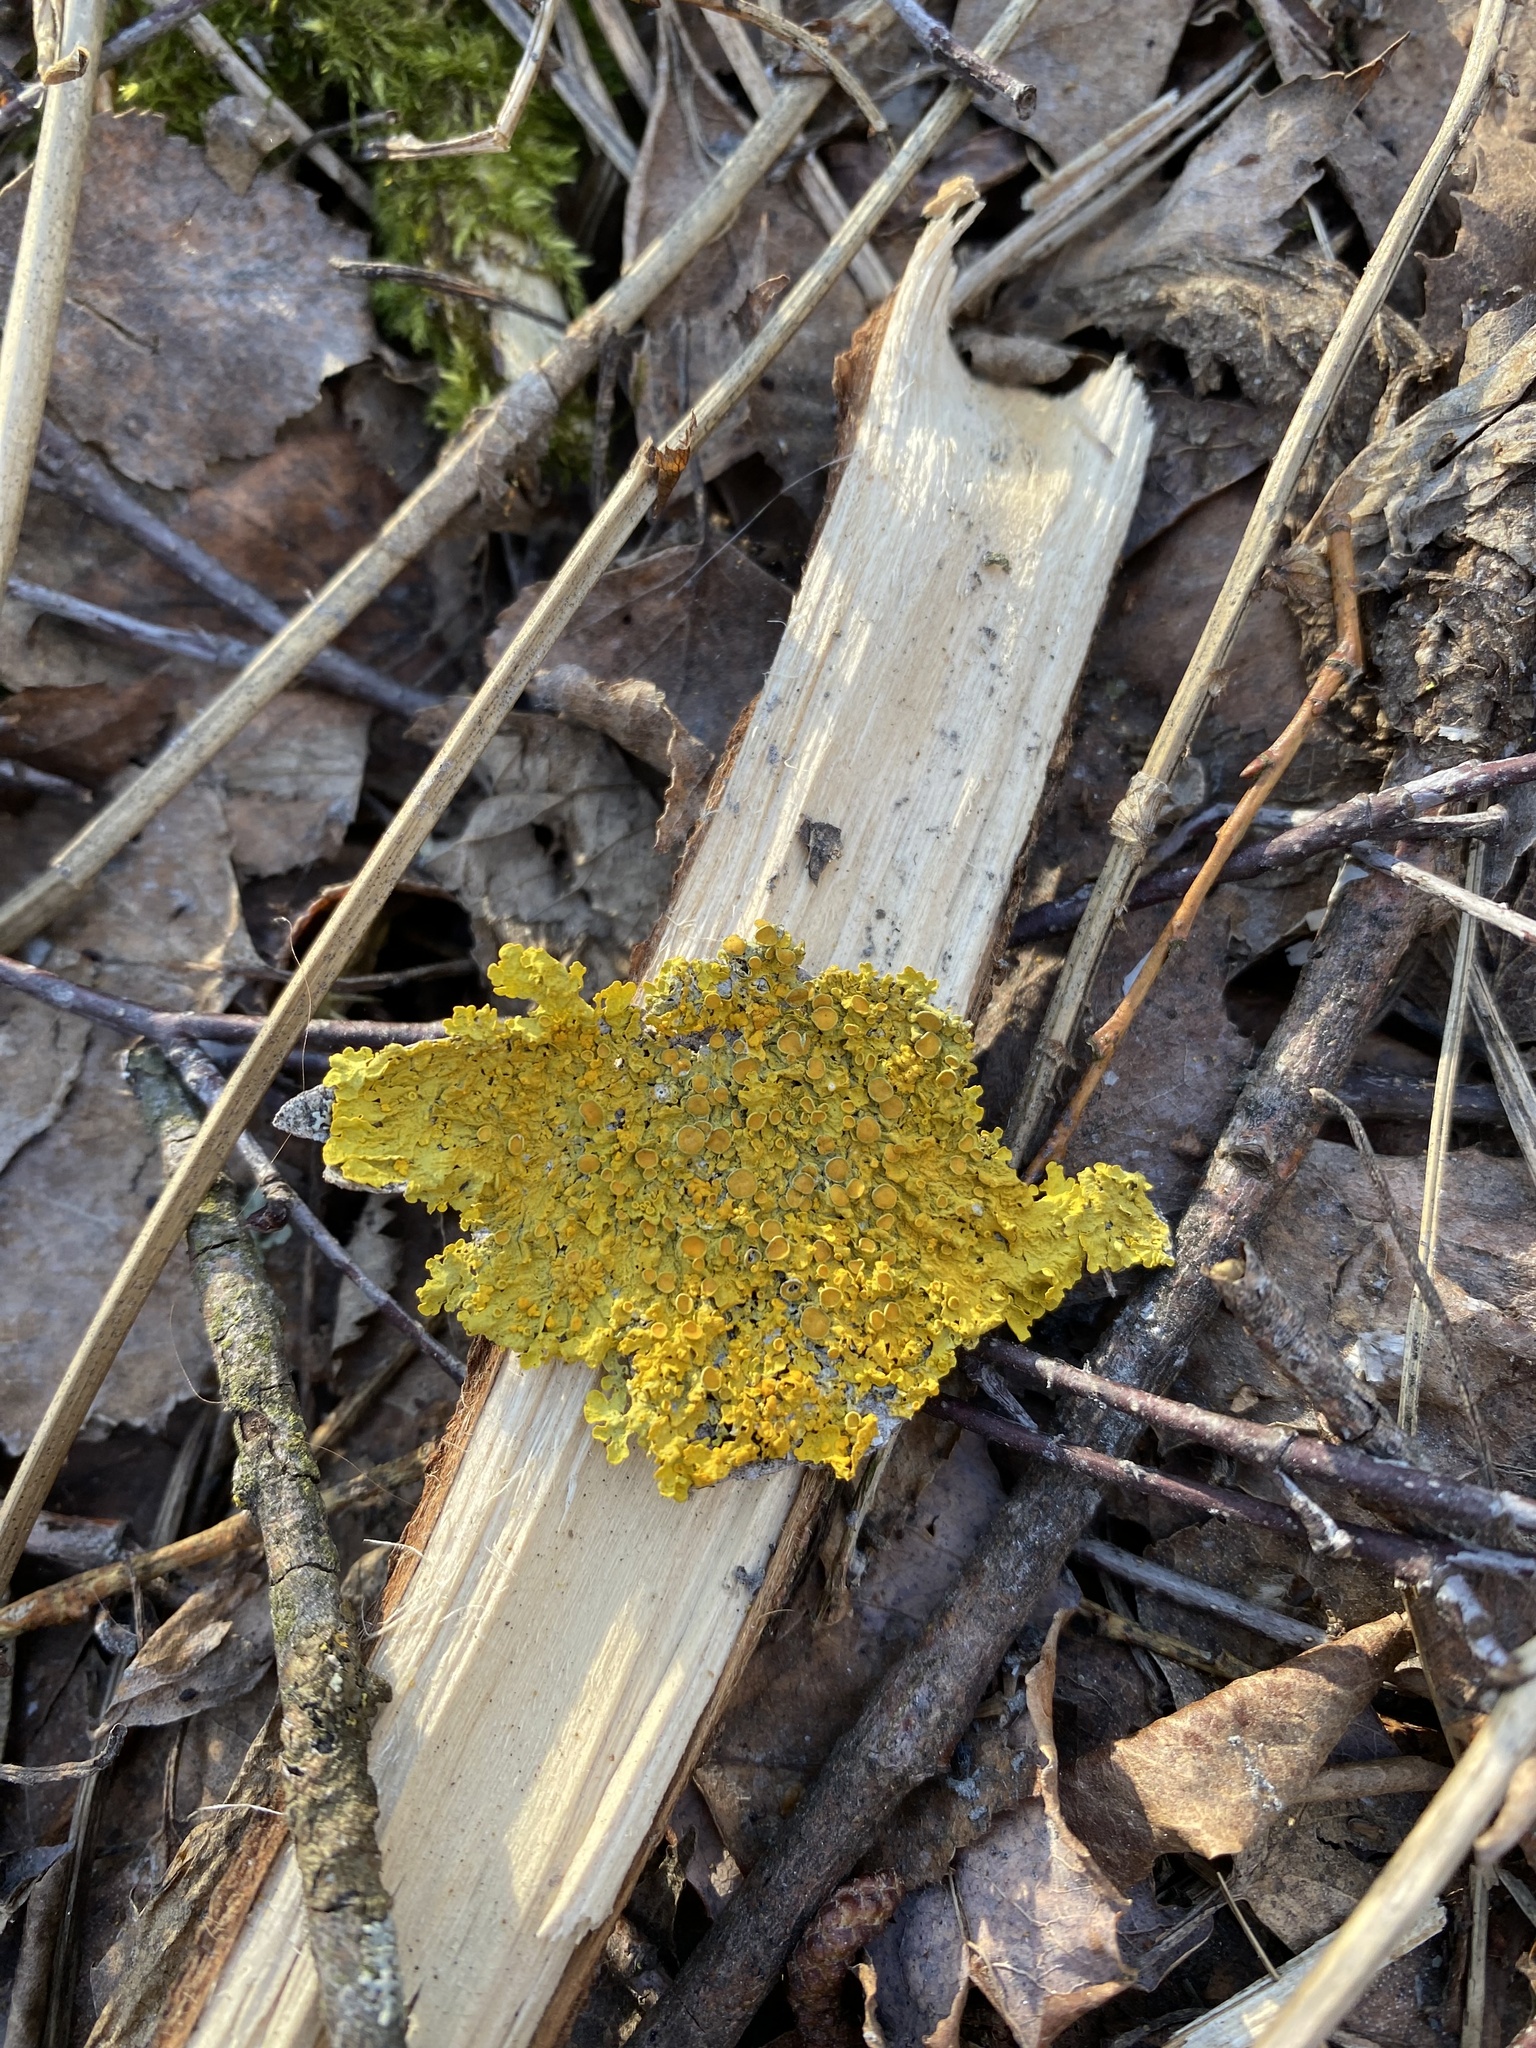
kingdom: Fungi
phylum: Ascomycota
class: Lecanoromycetes
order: Teloschistales
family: Teloschistaceae
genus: Xanthoria
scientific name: Xanthoria parietina
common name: Common orange lichen
